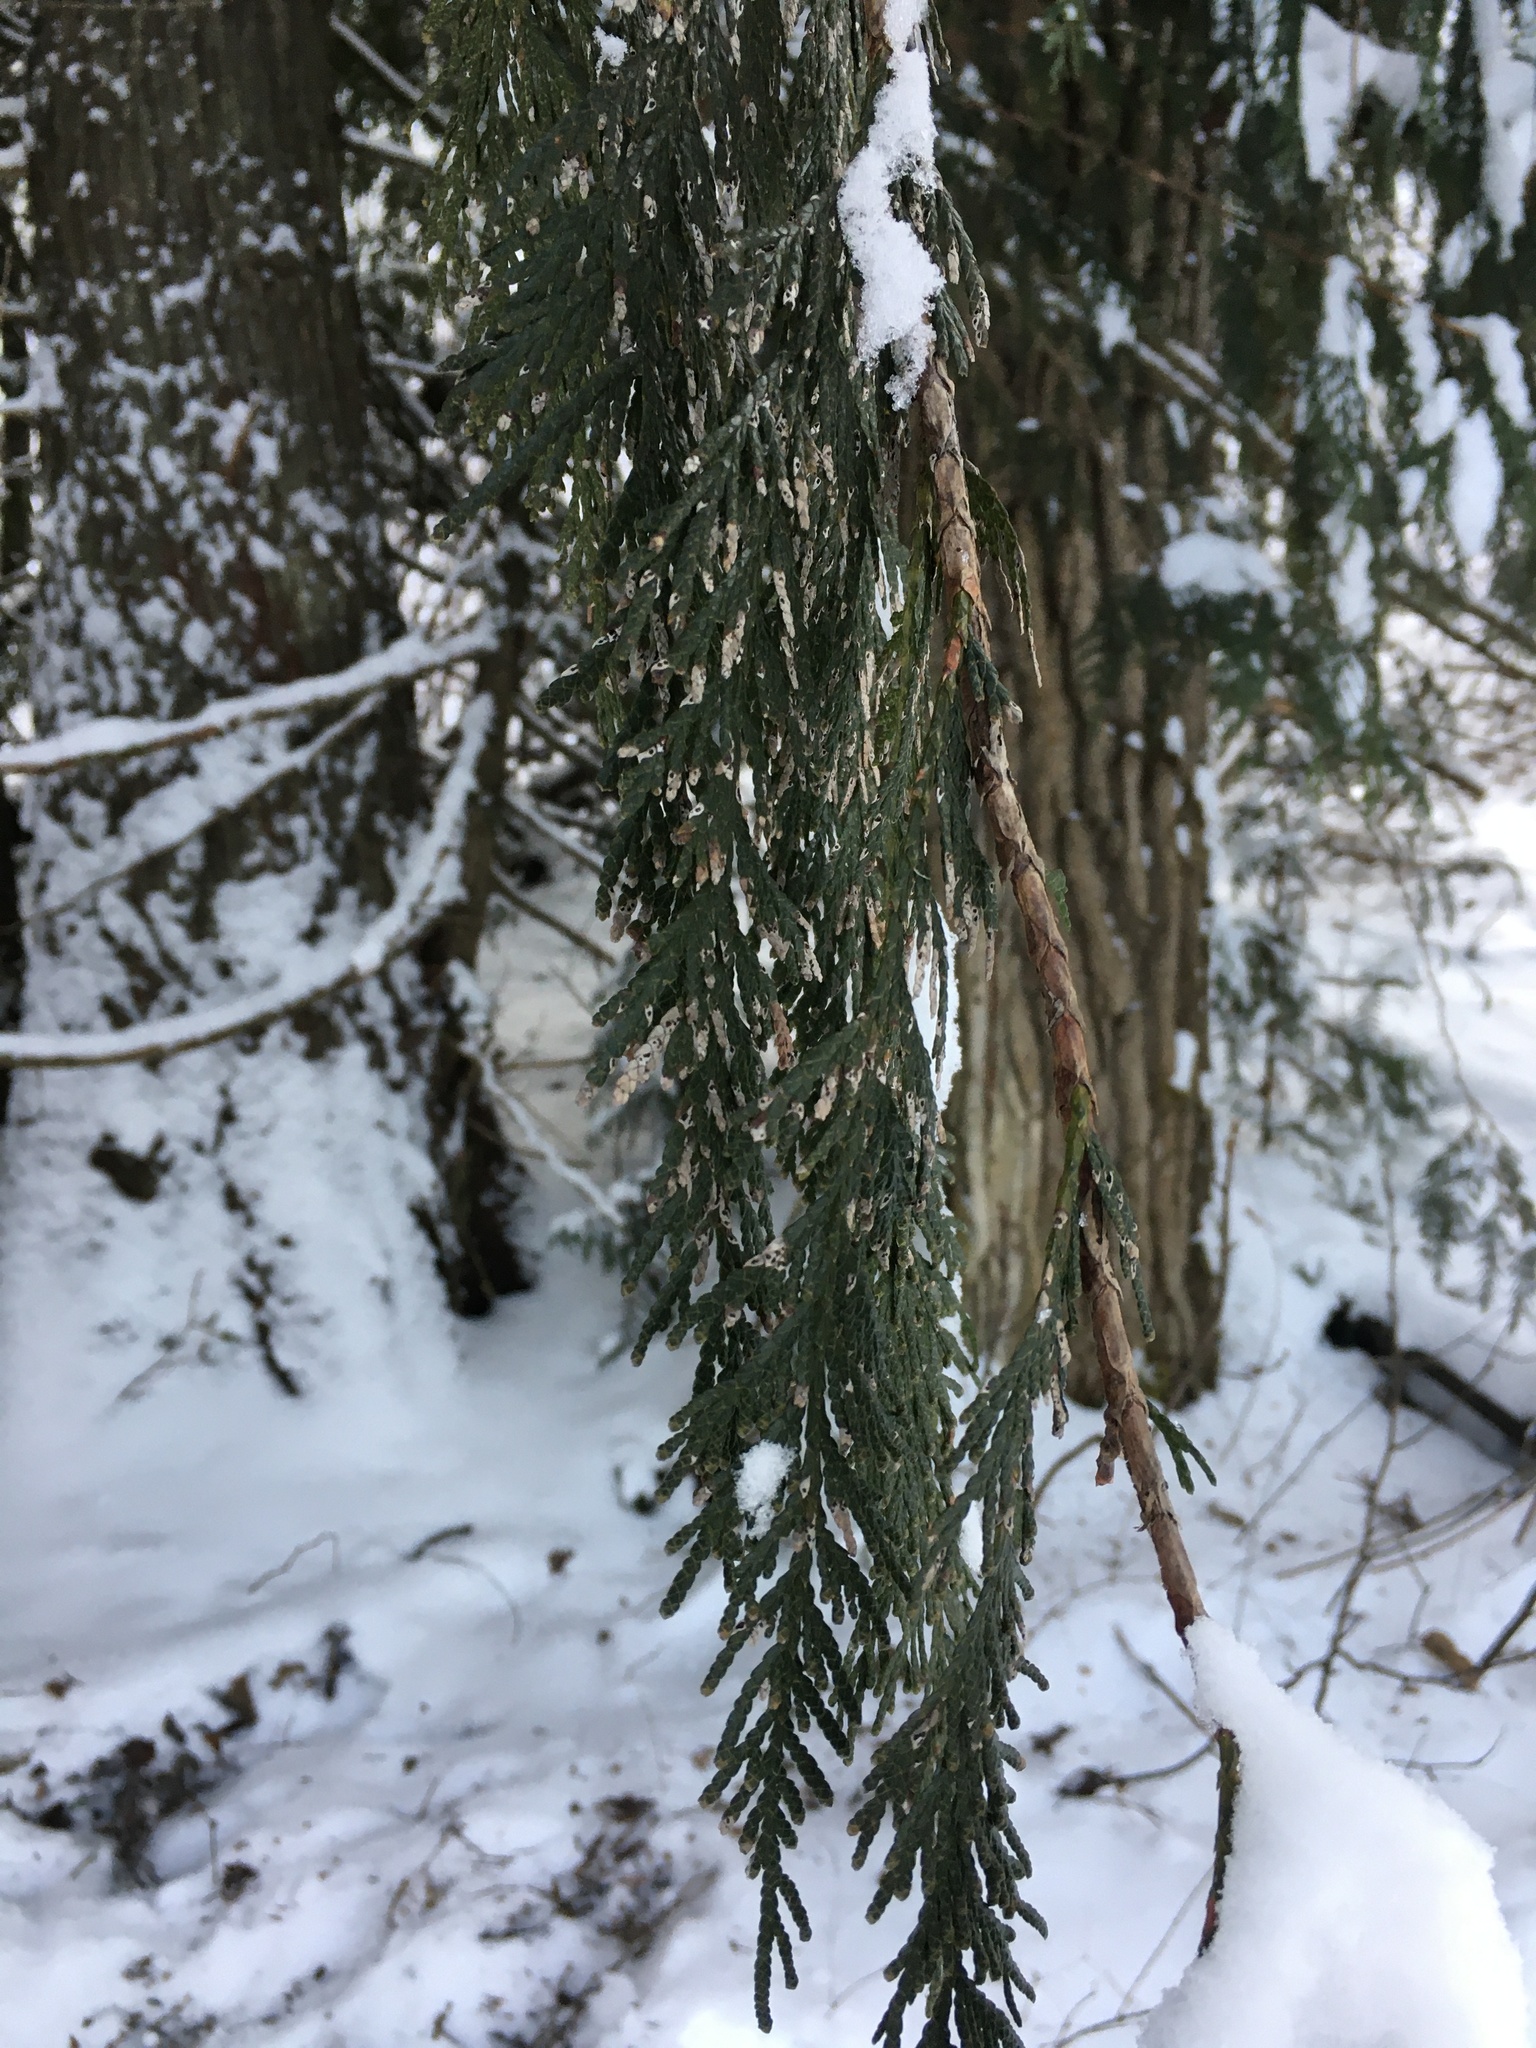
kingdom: Plantae
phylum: Tracheophyta
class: Pinopsida
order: Pinales
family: Cupressaceae
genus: Thuja
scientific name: Thuja plicata
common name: Western red-cedar
